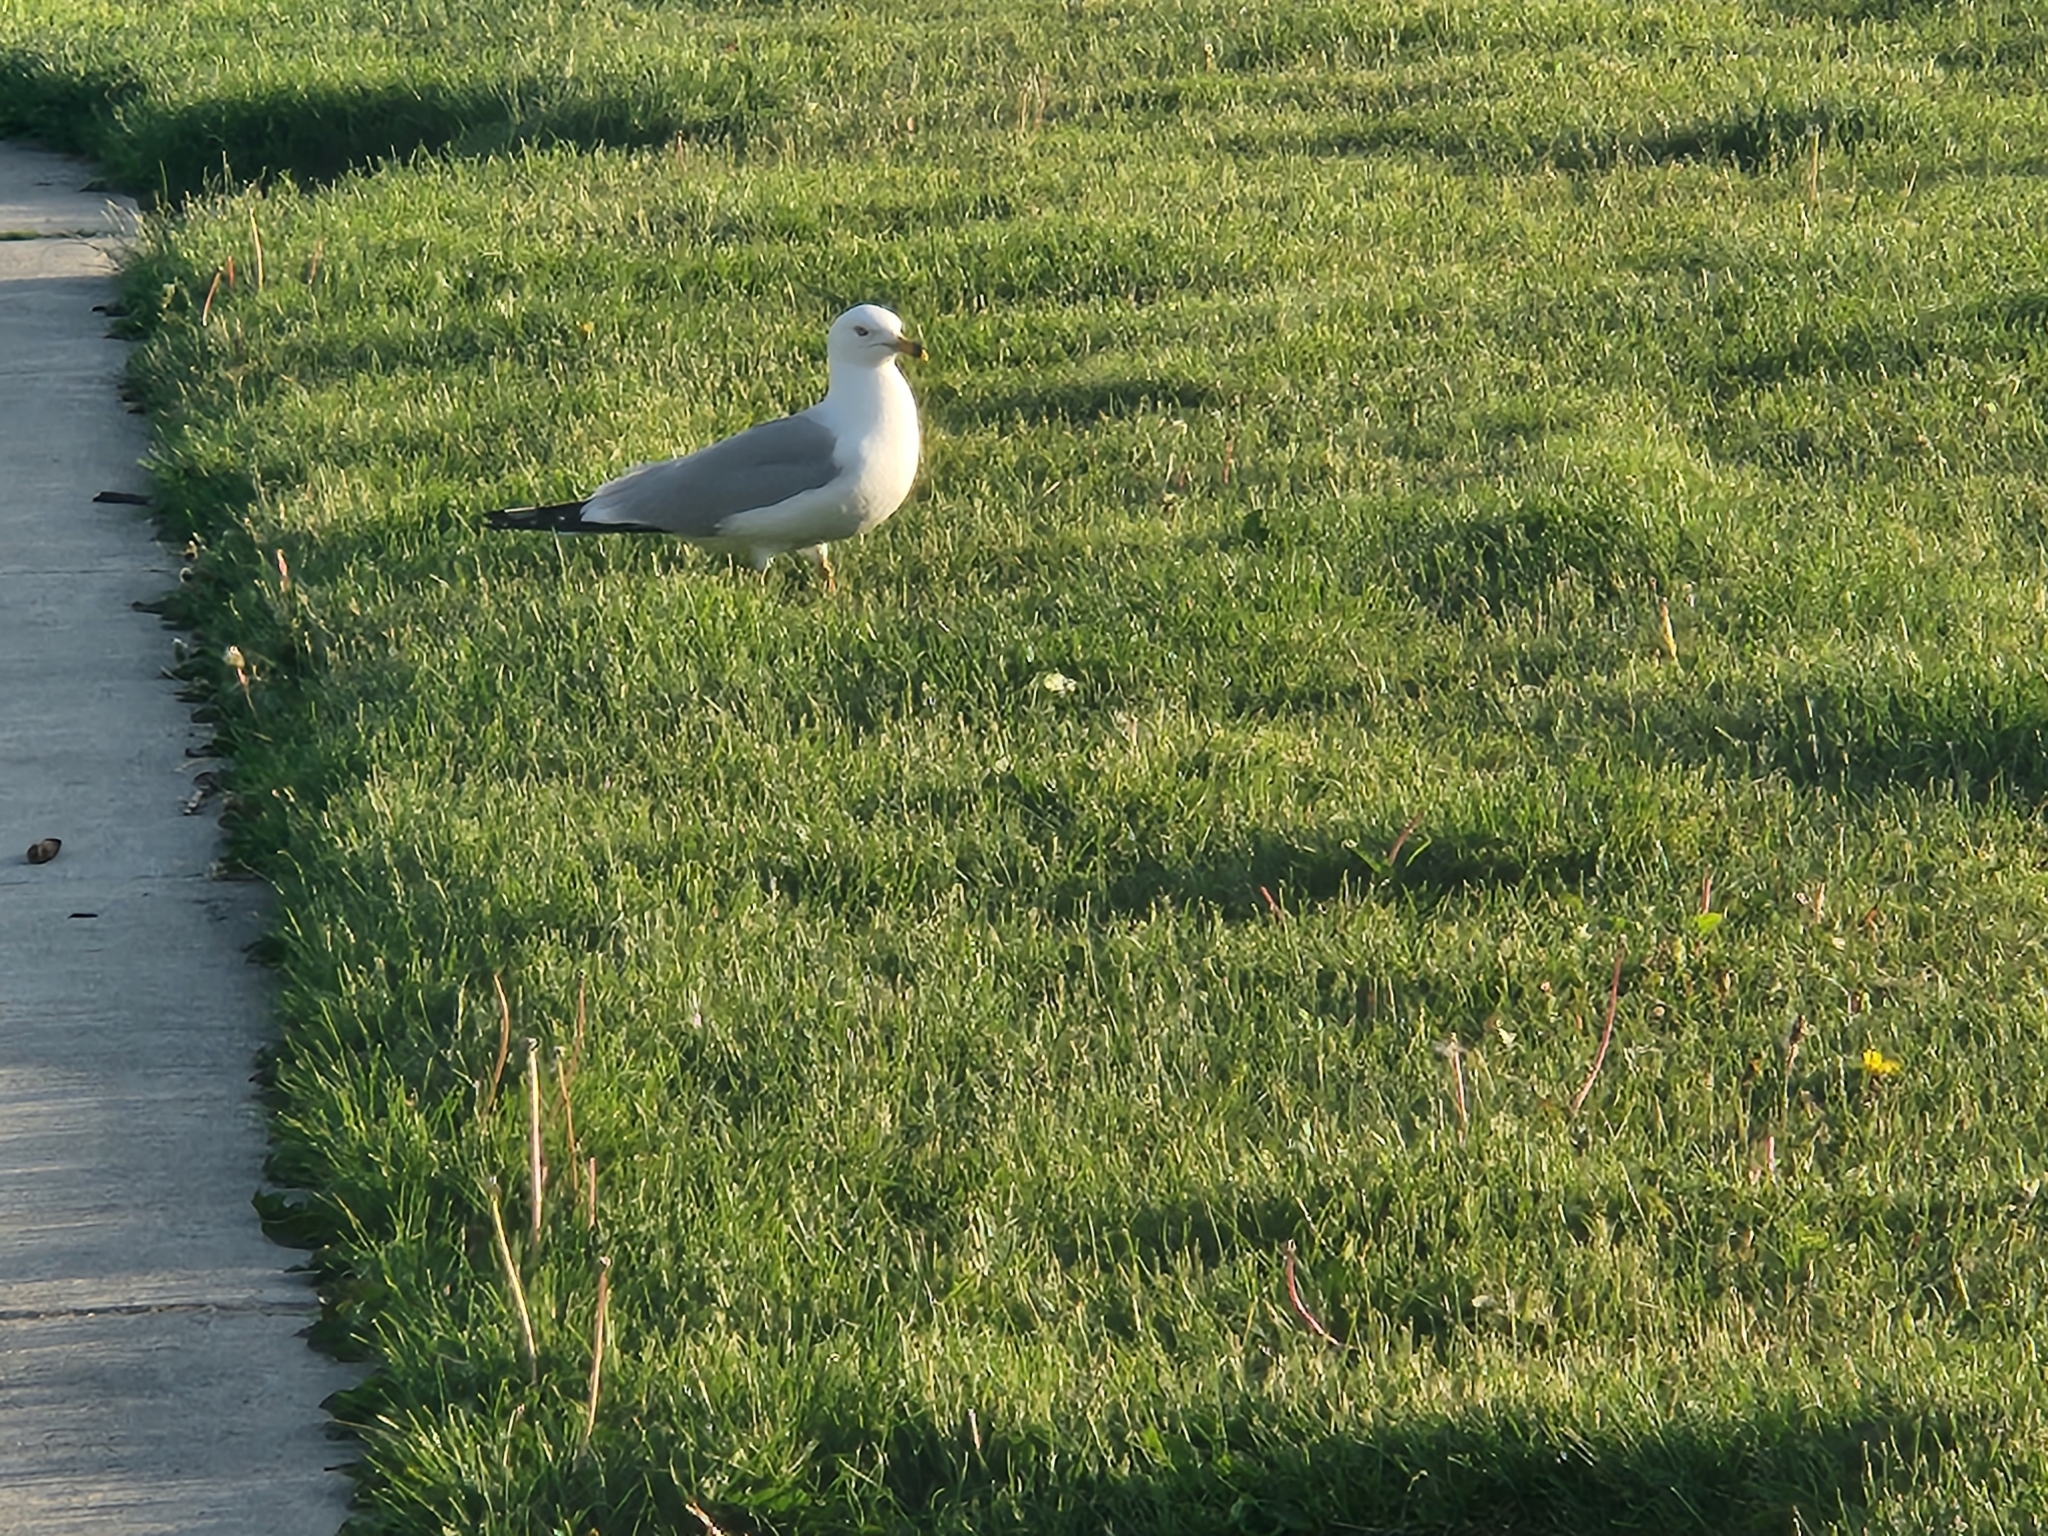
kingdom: Animalia
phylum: Chordata
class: Aves
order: Charadriiformes
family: Laridae
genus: Larus
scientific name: Larus delawarensis
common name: Ring-billed gull
